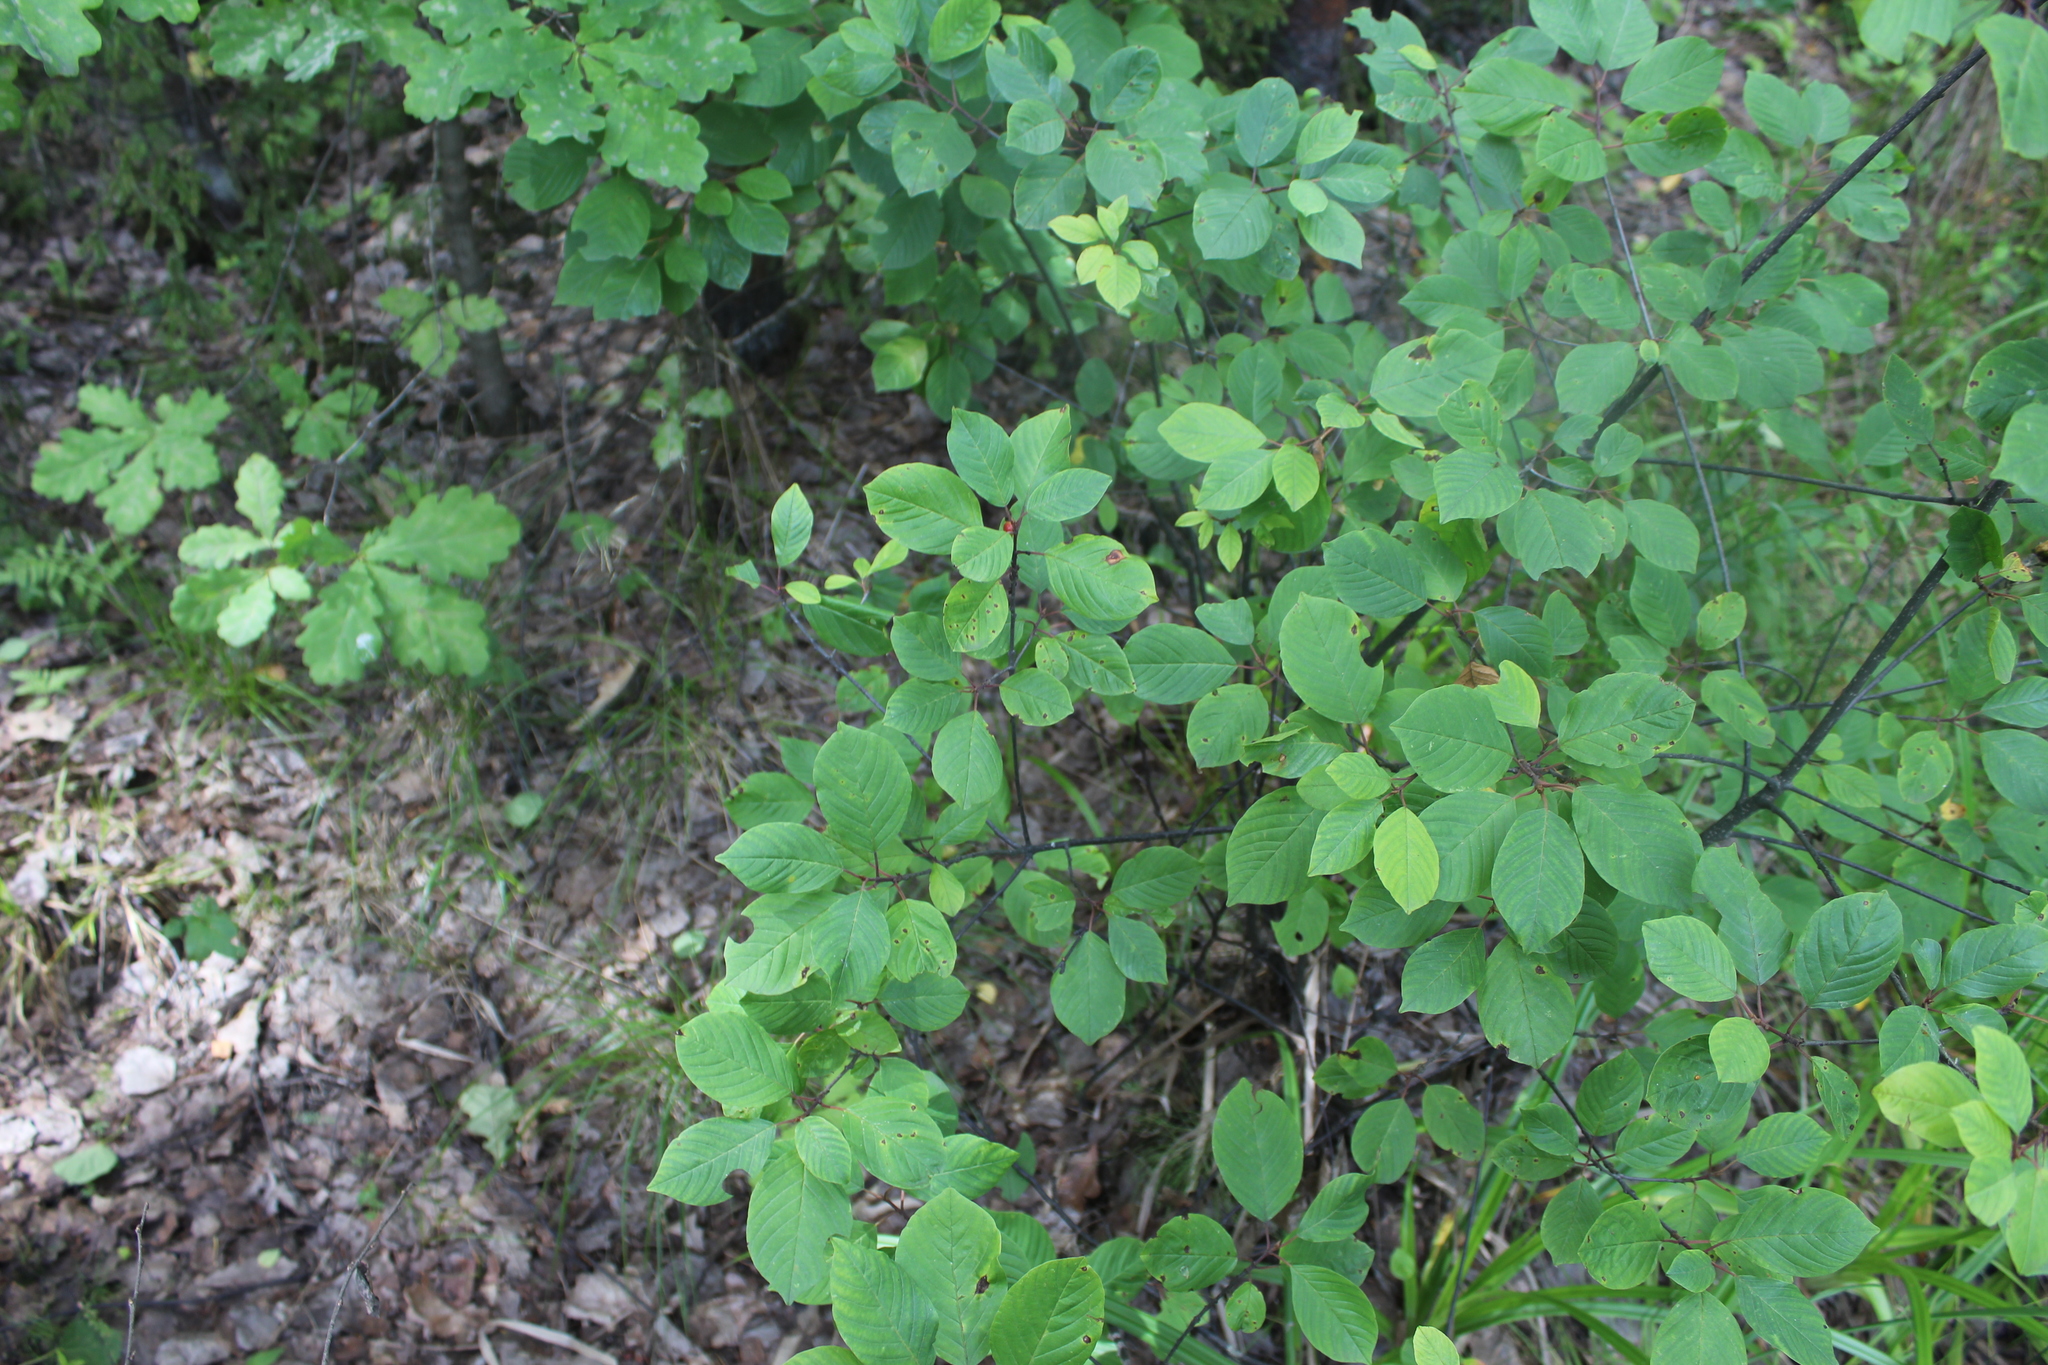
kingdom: Plantae
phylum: Tracheophyta
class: Magnoliopsida
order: Rosales
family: Rhamnaceae
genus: Frangula
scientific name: Frangula alnus
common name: Alder buckthorn
